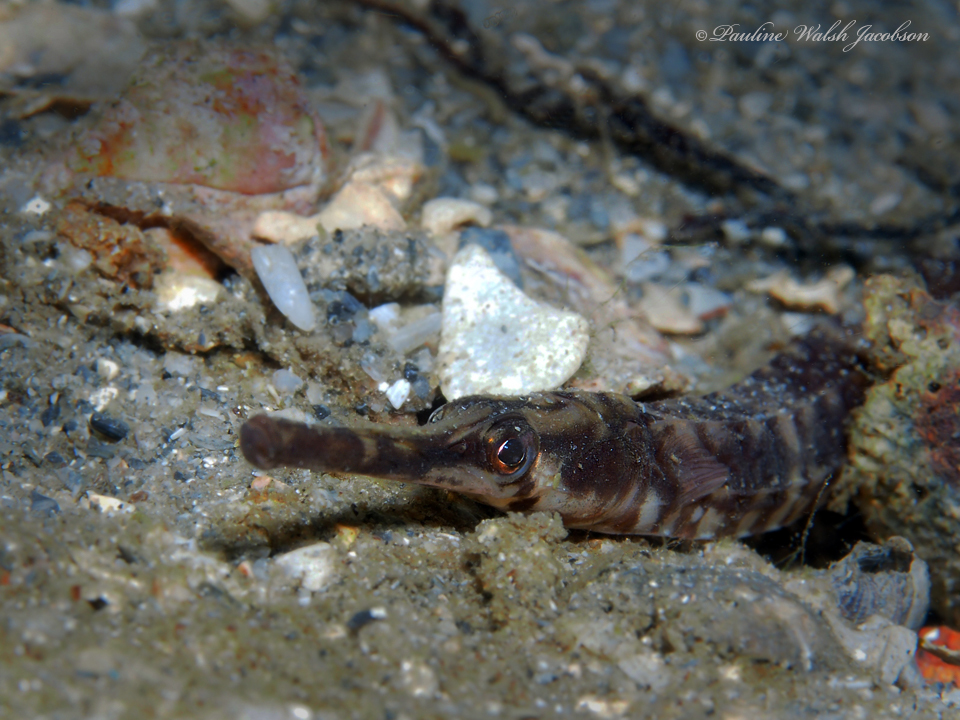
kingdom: Animalia
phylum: Chordata
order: Syngnathiformes
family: Syngnathidae
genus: Syngnathus
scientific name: Syngnathus louisianae
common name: Chain pipefish
